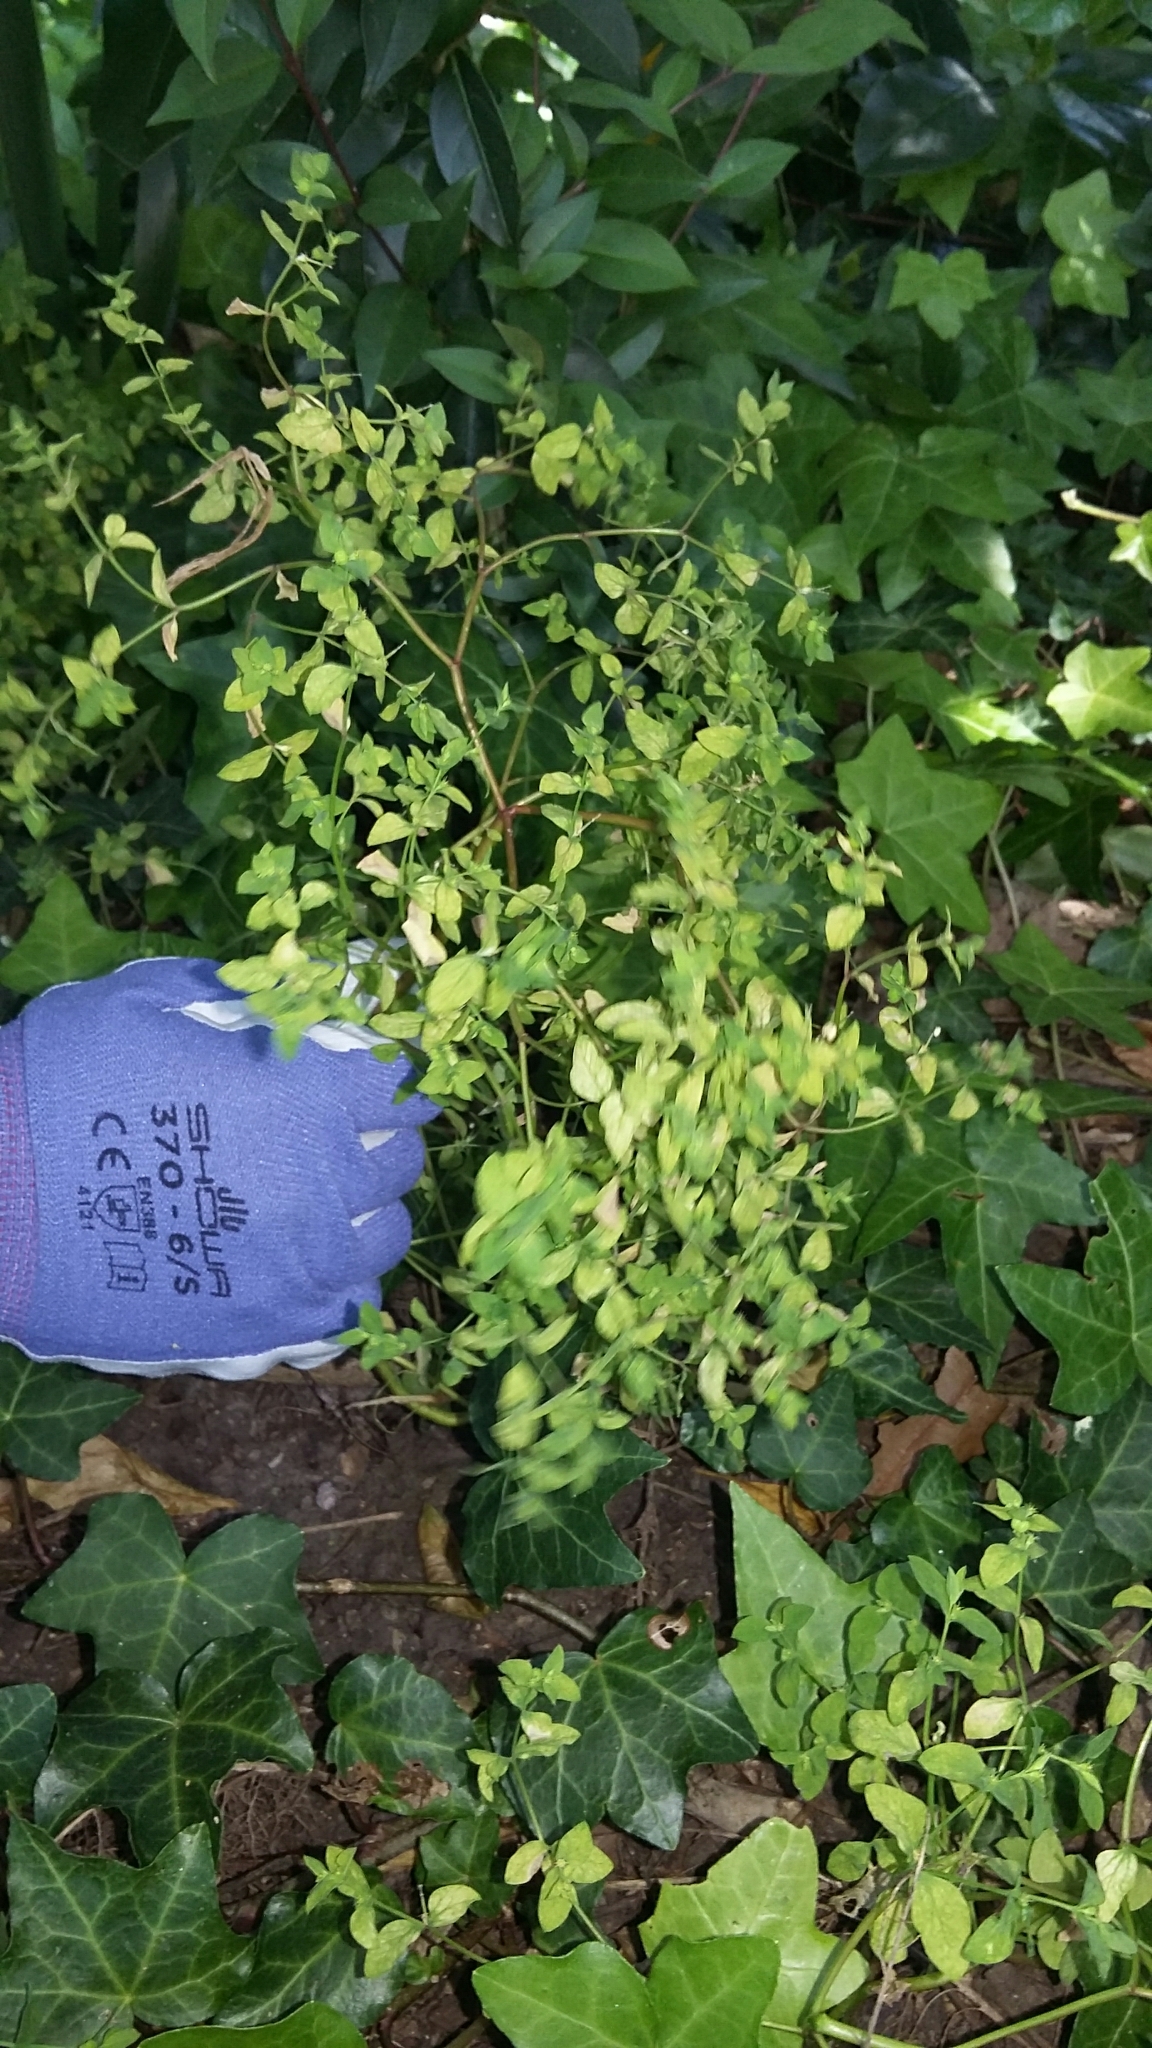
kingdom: Plantae
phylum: Tracheophyta
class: Magnoliopsida
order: Malpighiales
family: Euphorbiaceae
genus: Euphorbia
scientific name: Euphorbia peplus
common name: Petty spurge
